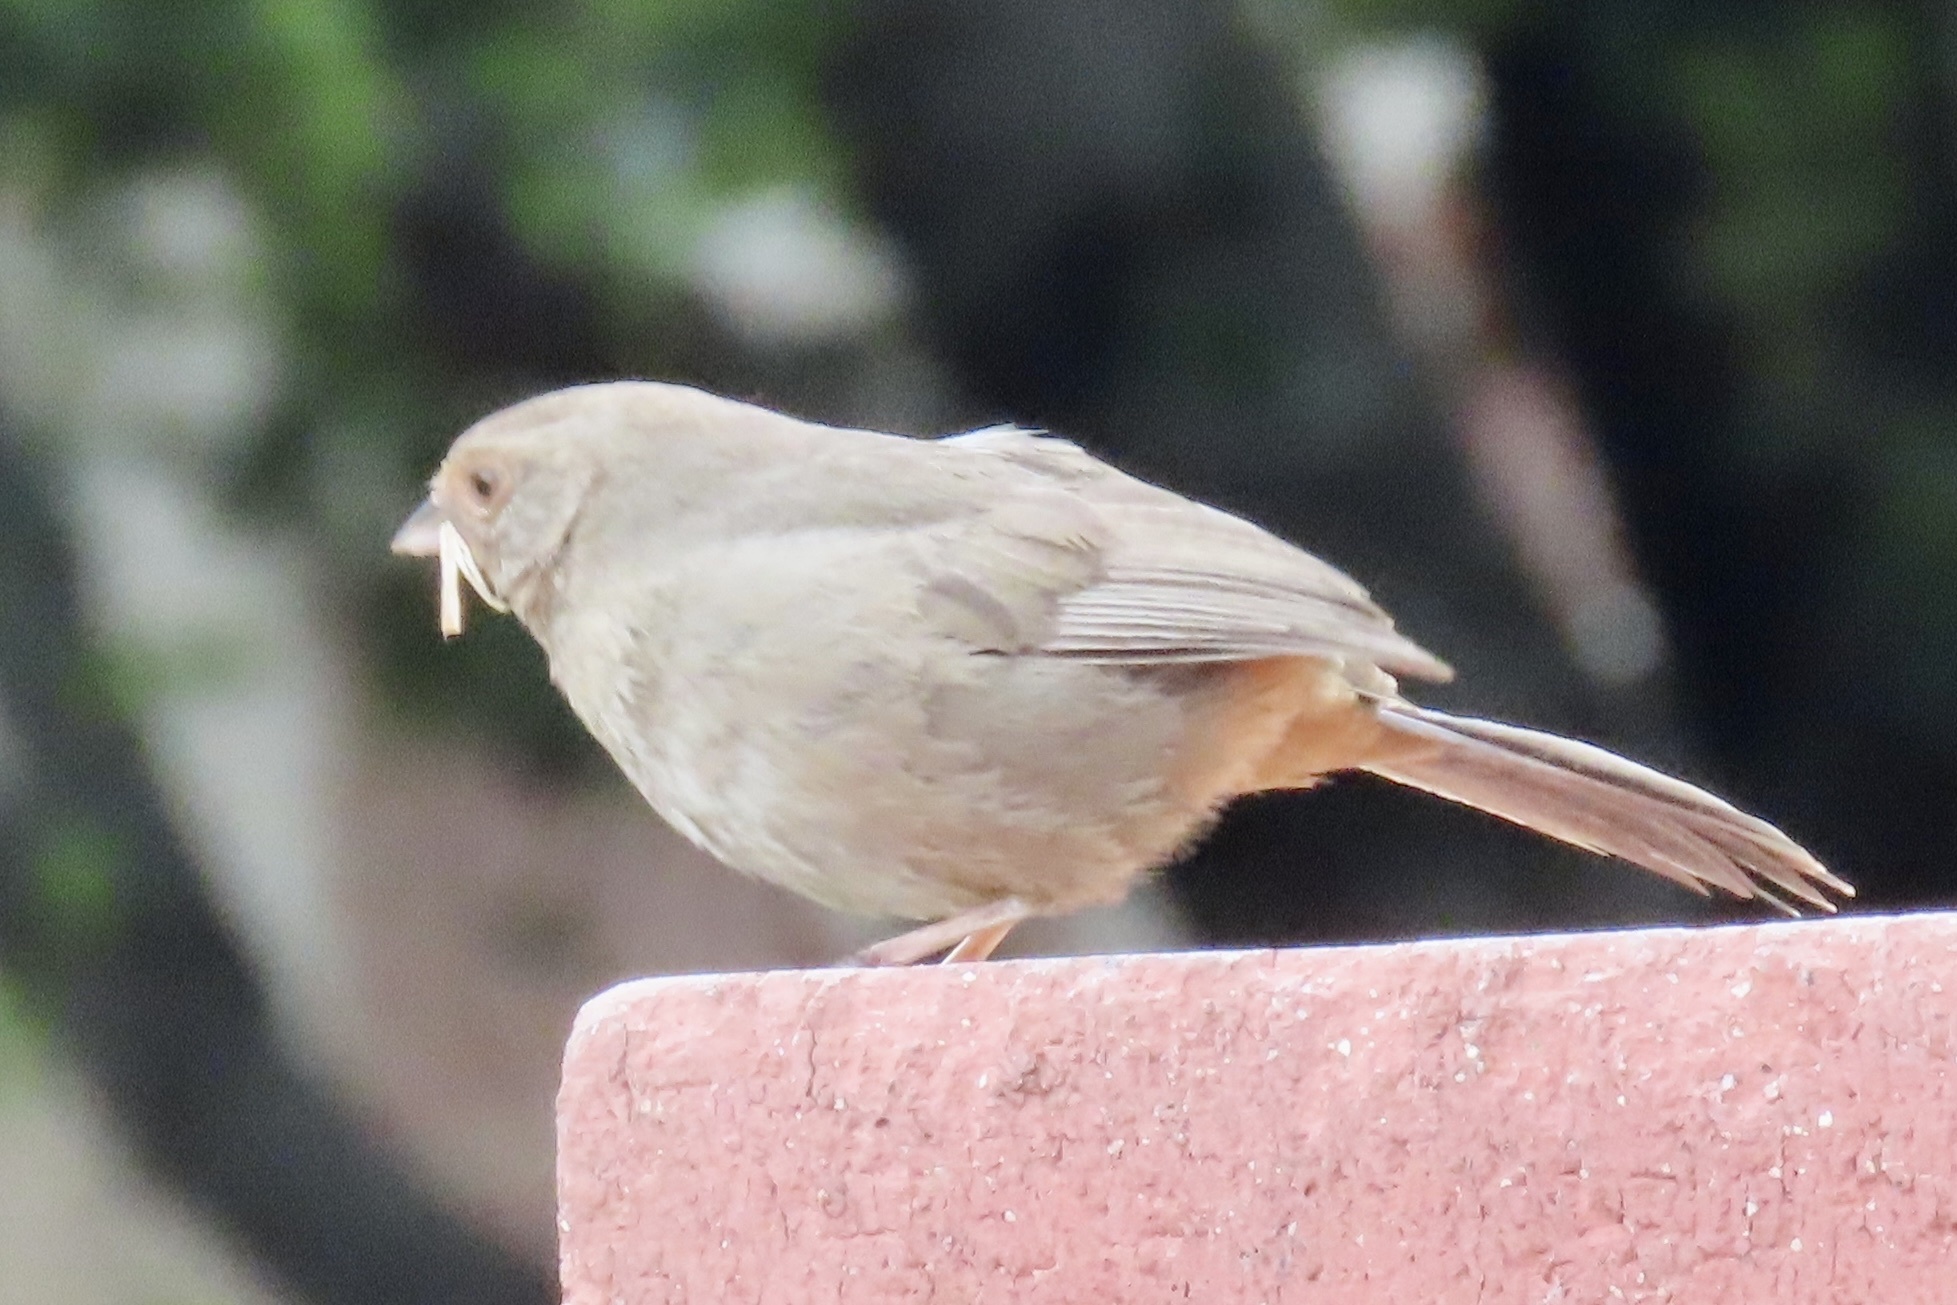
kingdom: Animalia
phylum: Chordata
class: Aves
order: Passeriformes
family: Passerellidae
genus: Melozone
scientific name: Melozone crissalis
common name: California towhee
